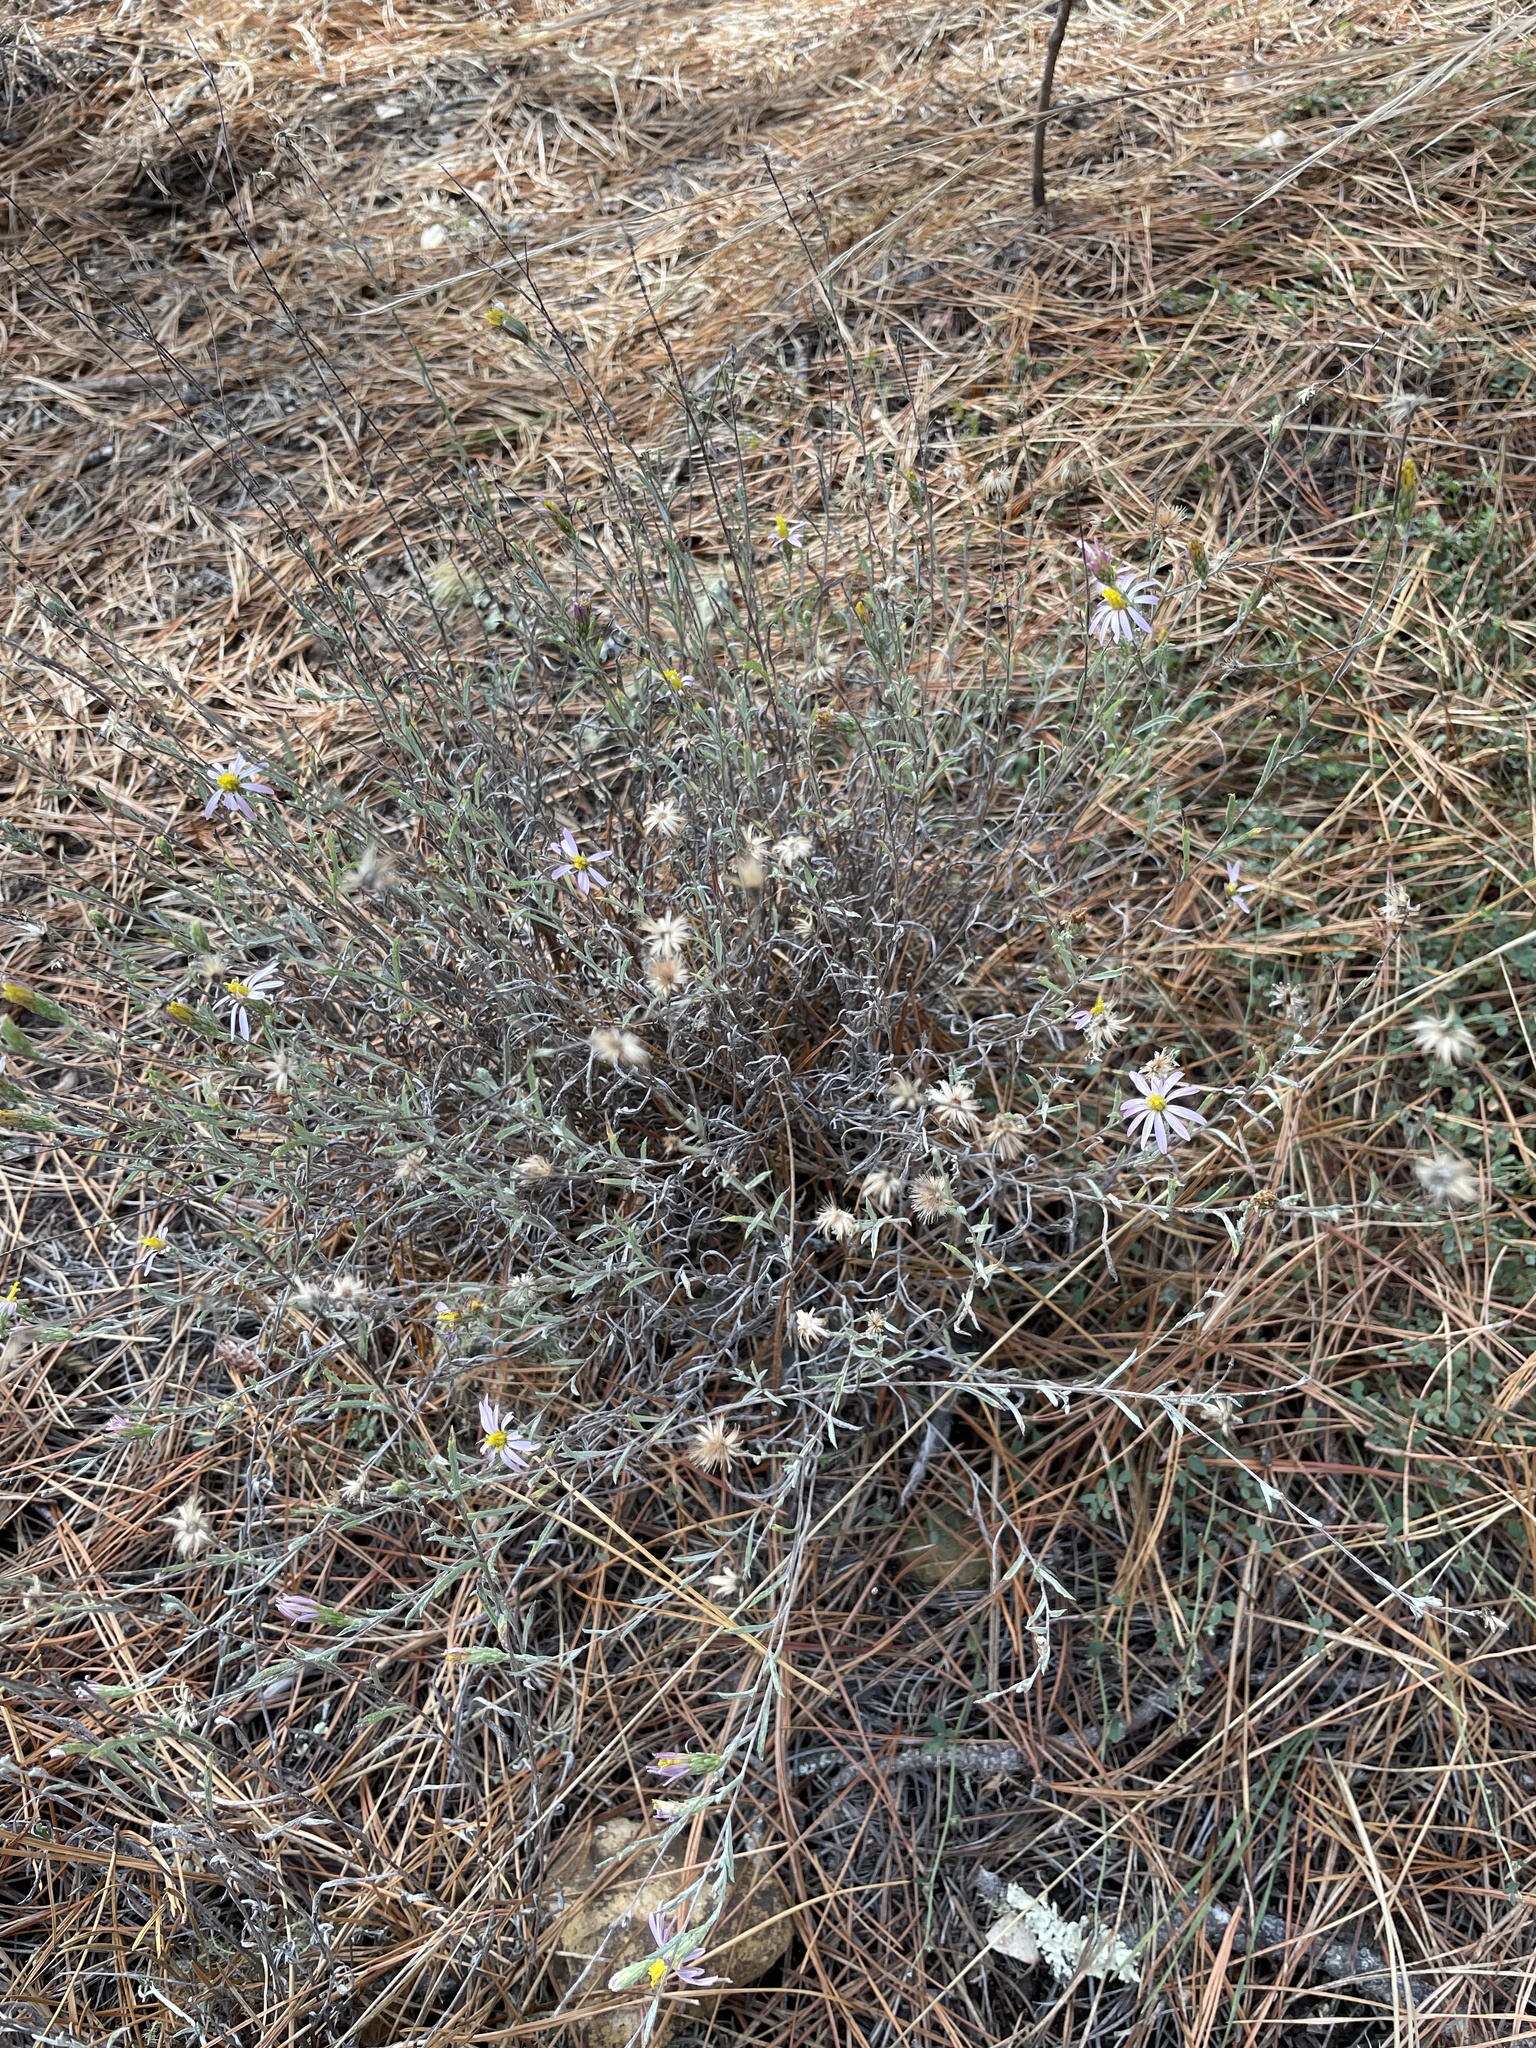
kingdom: Plantae
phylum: Tracheophyta
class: Magnoliopsida
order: Asterales
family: Asteraceae
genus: Corethrogyne
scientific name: Corethrogyne filaginifolia
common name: Sand-aster
